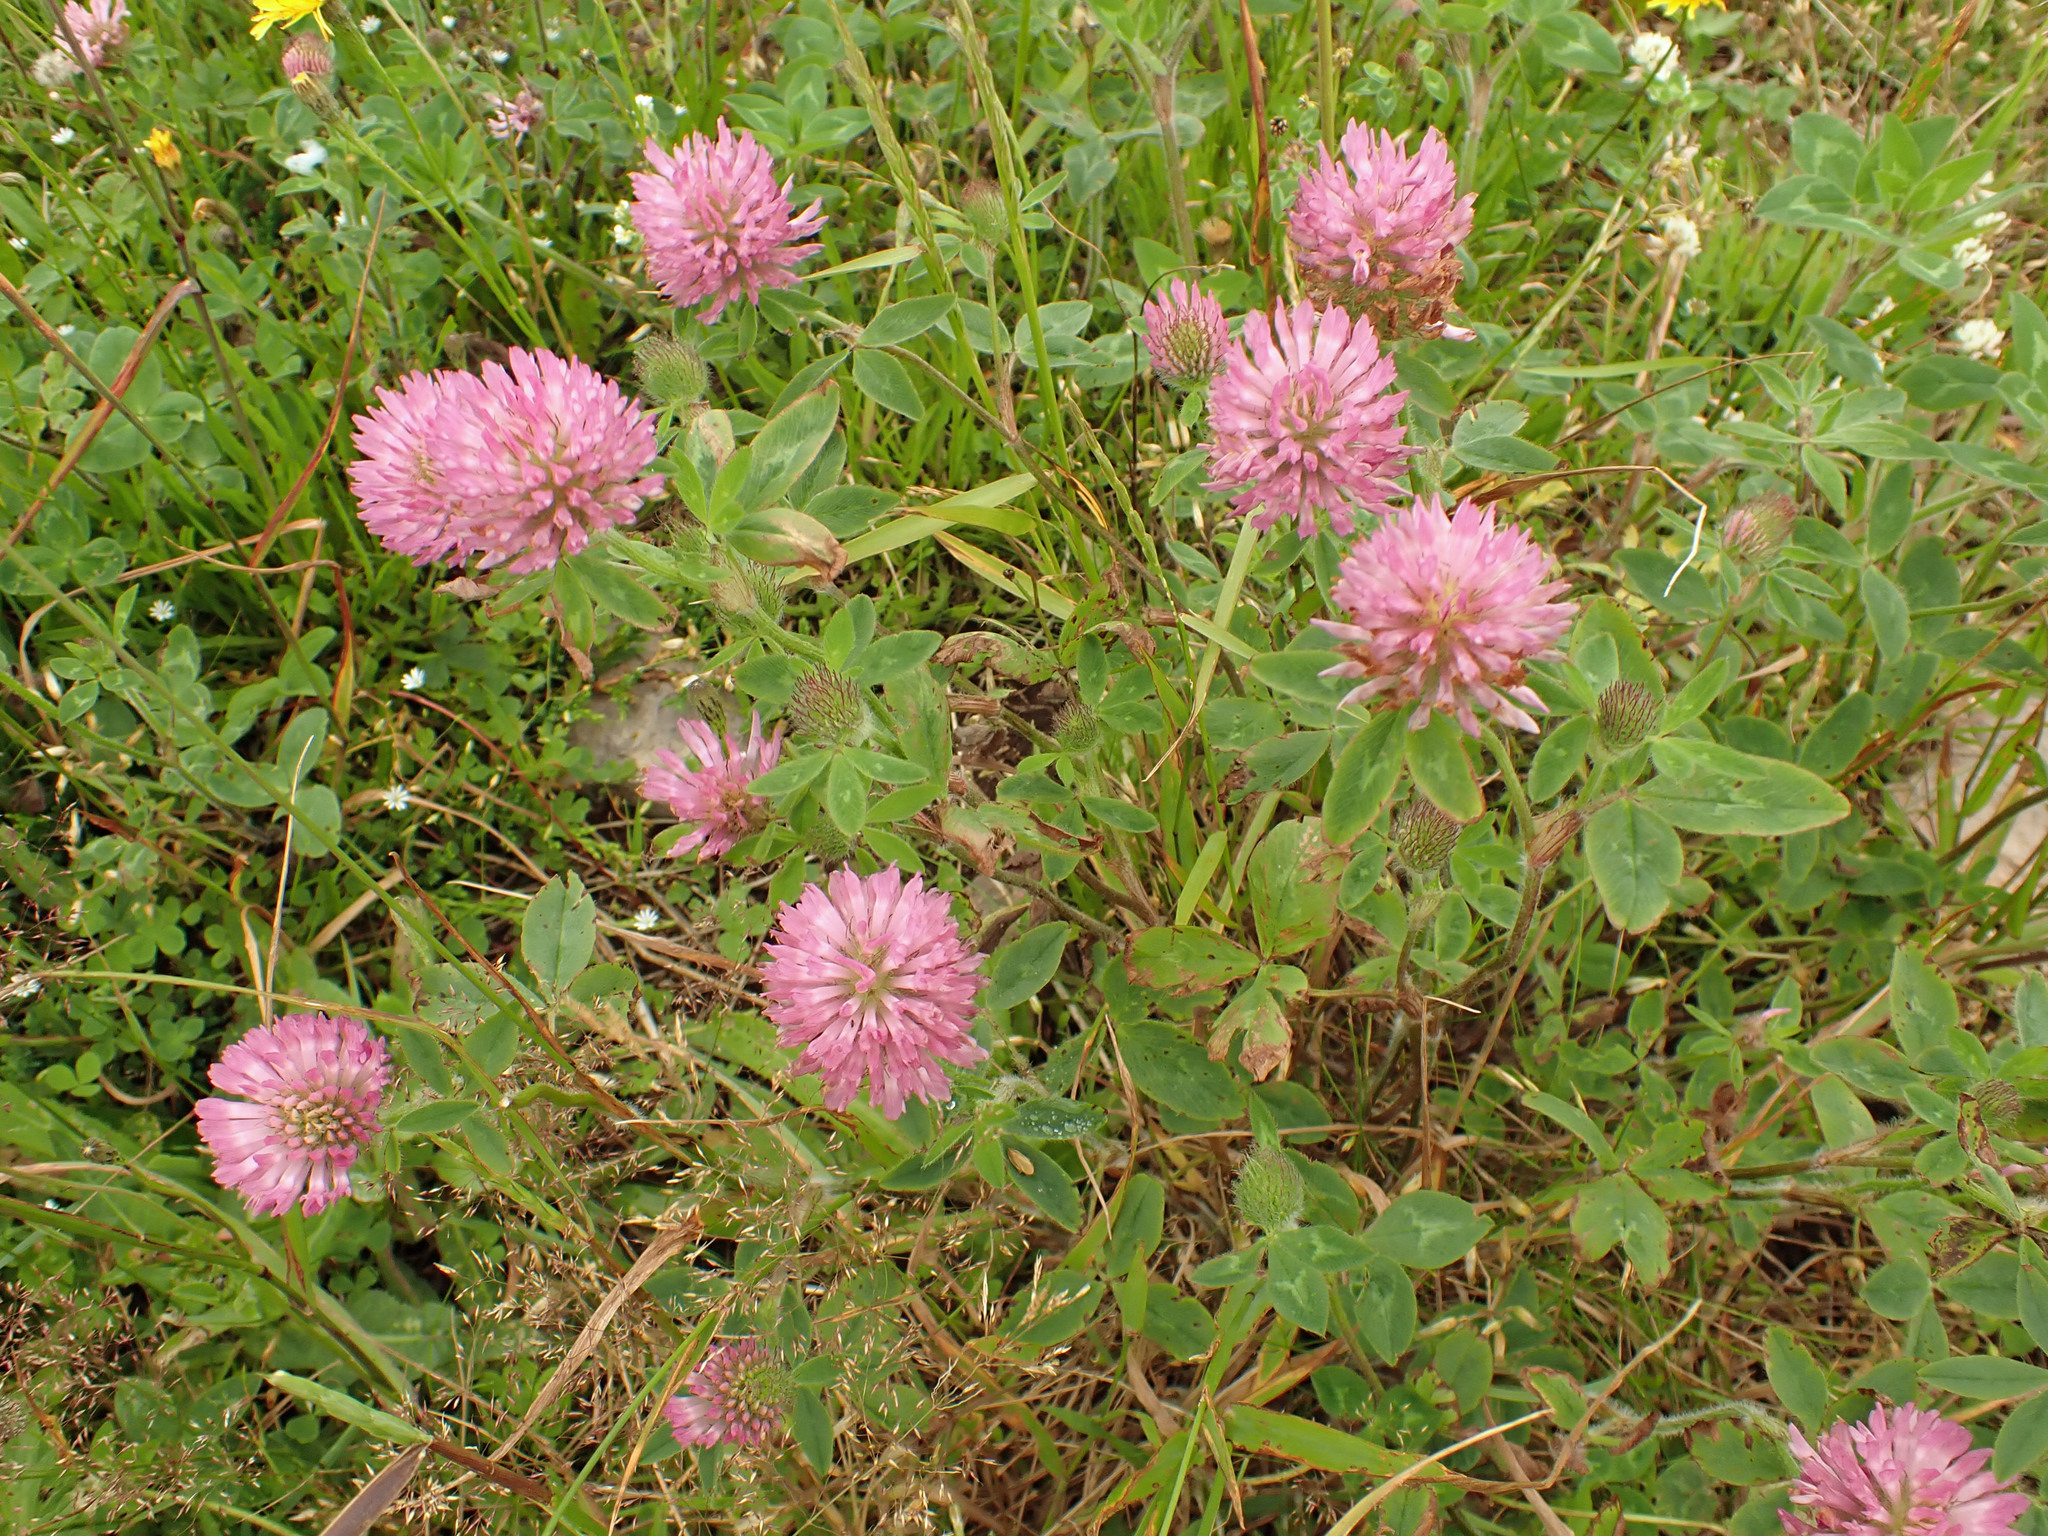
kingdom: Plantae
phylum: Tracheophyta
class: Magnoliopsida
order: Fabales
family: Fabaceae
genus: Trifolium
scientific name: Trifolium pratense
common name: Red clover
